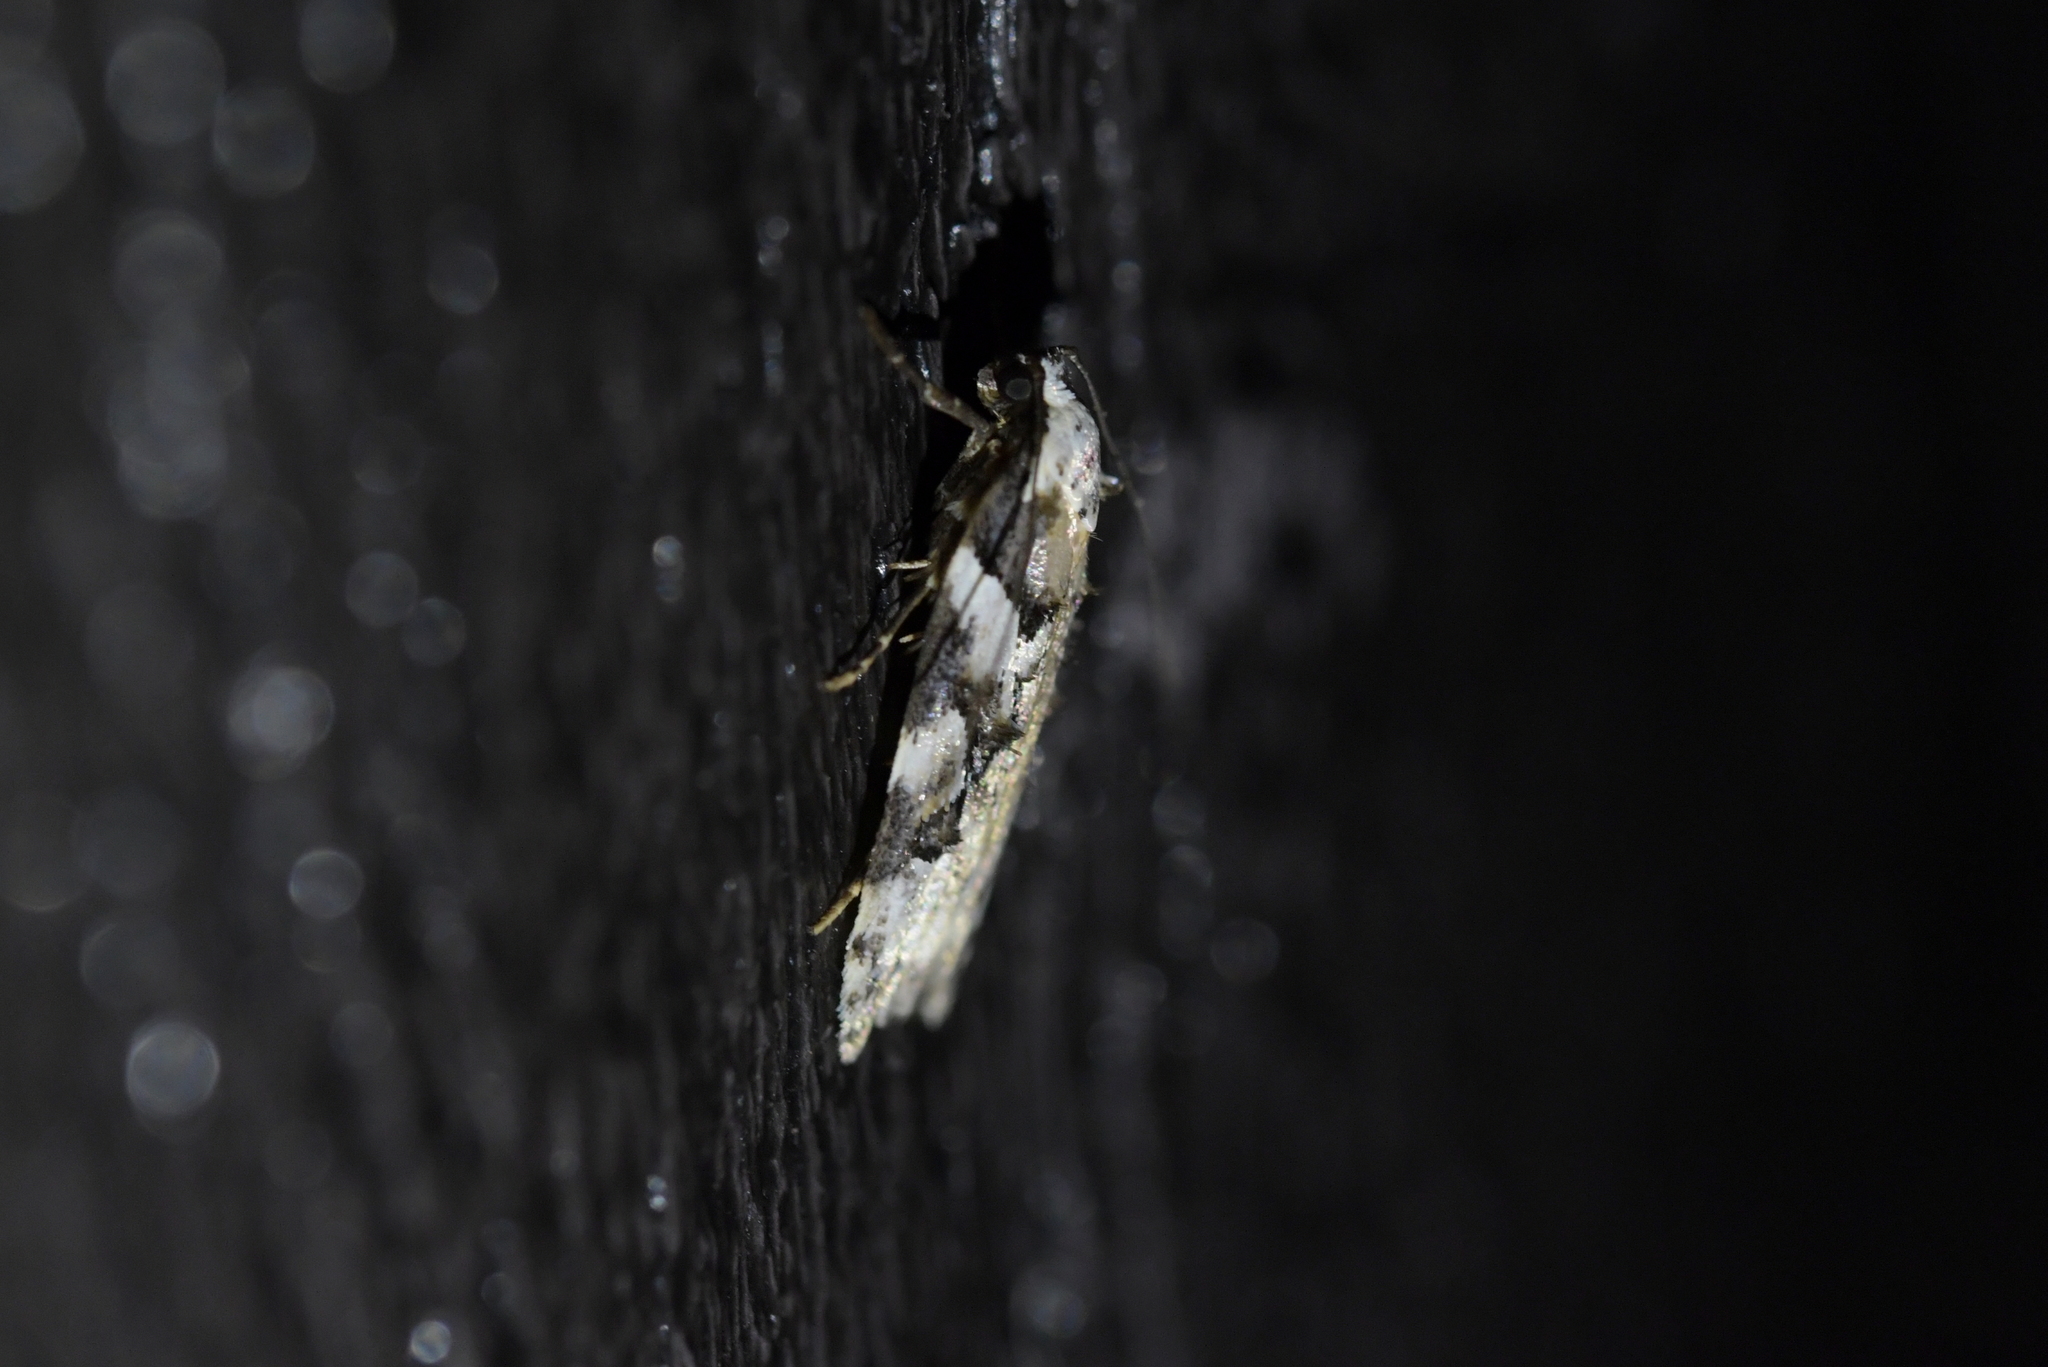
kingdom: Animalia
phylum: Arthropoda
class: Insecta
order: Lepidoptera
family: Oecophoridae
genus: Izatha
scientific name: Izatha epiphanes
